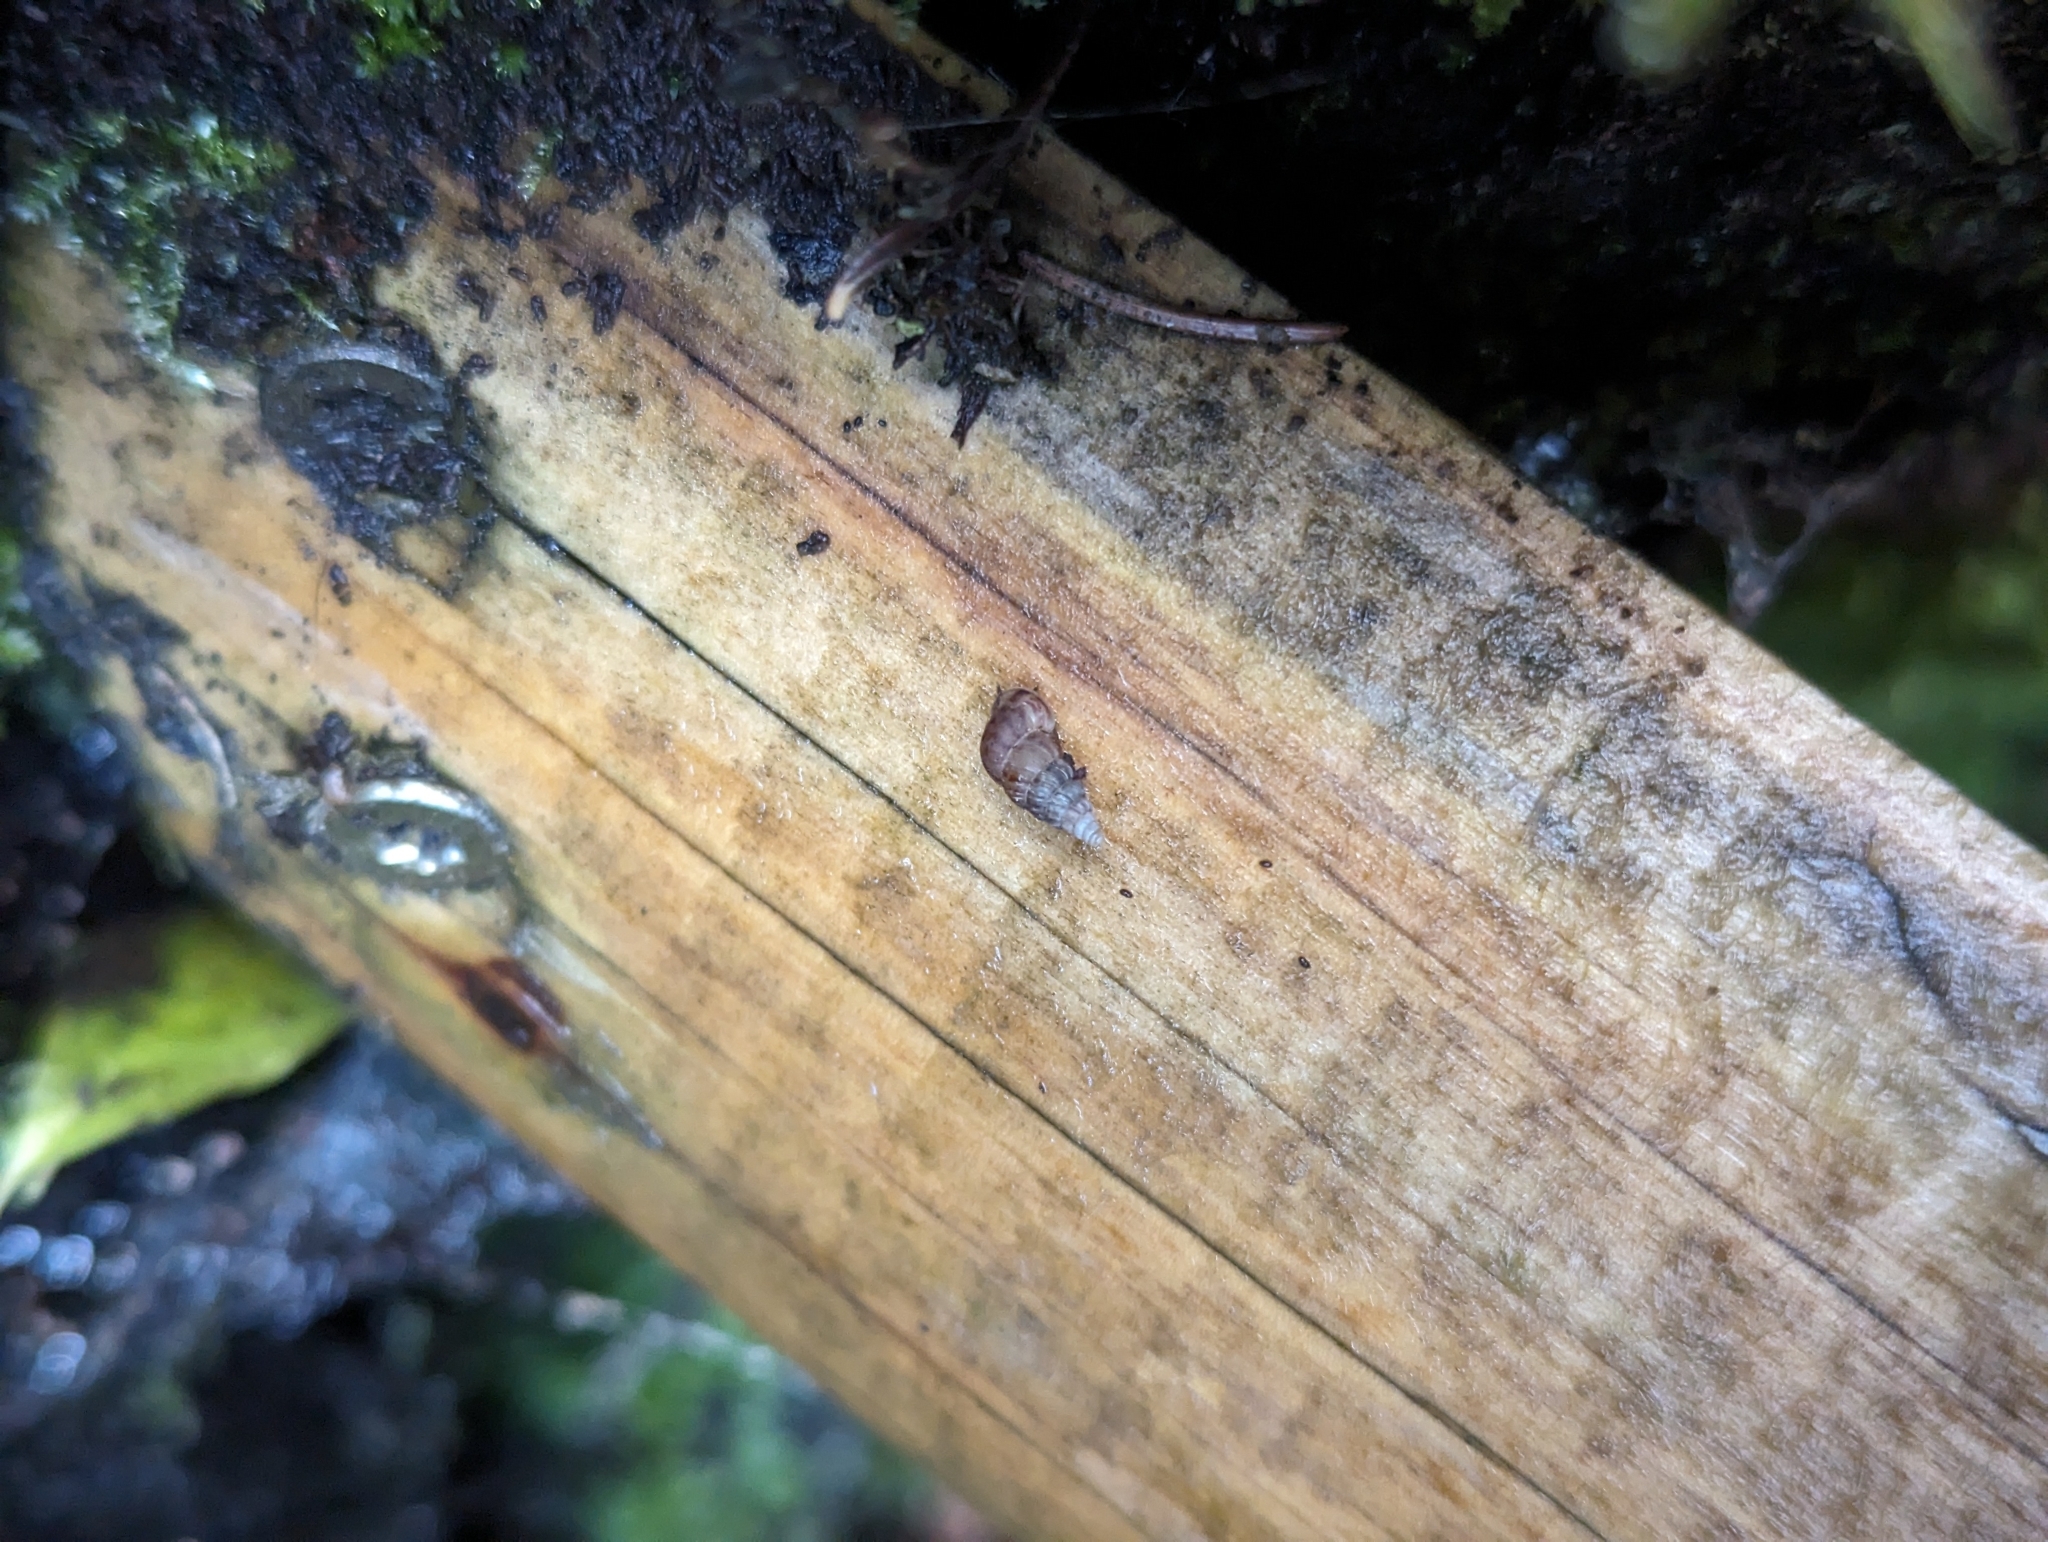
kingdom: Animalia
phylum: Mollusca
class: Gastropoda
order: Architaenioglossa
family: Cochlostomatidae
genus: Cochlostoma
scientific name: Cochlostoma septemspirale
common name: Seven-whorl snail
